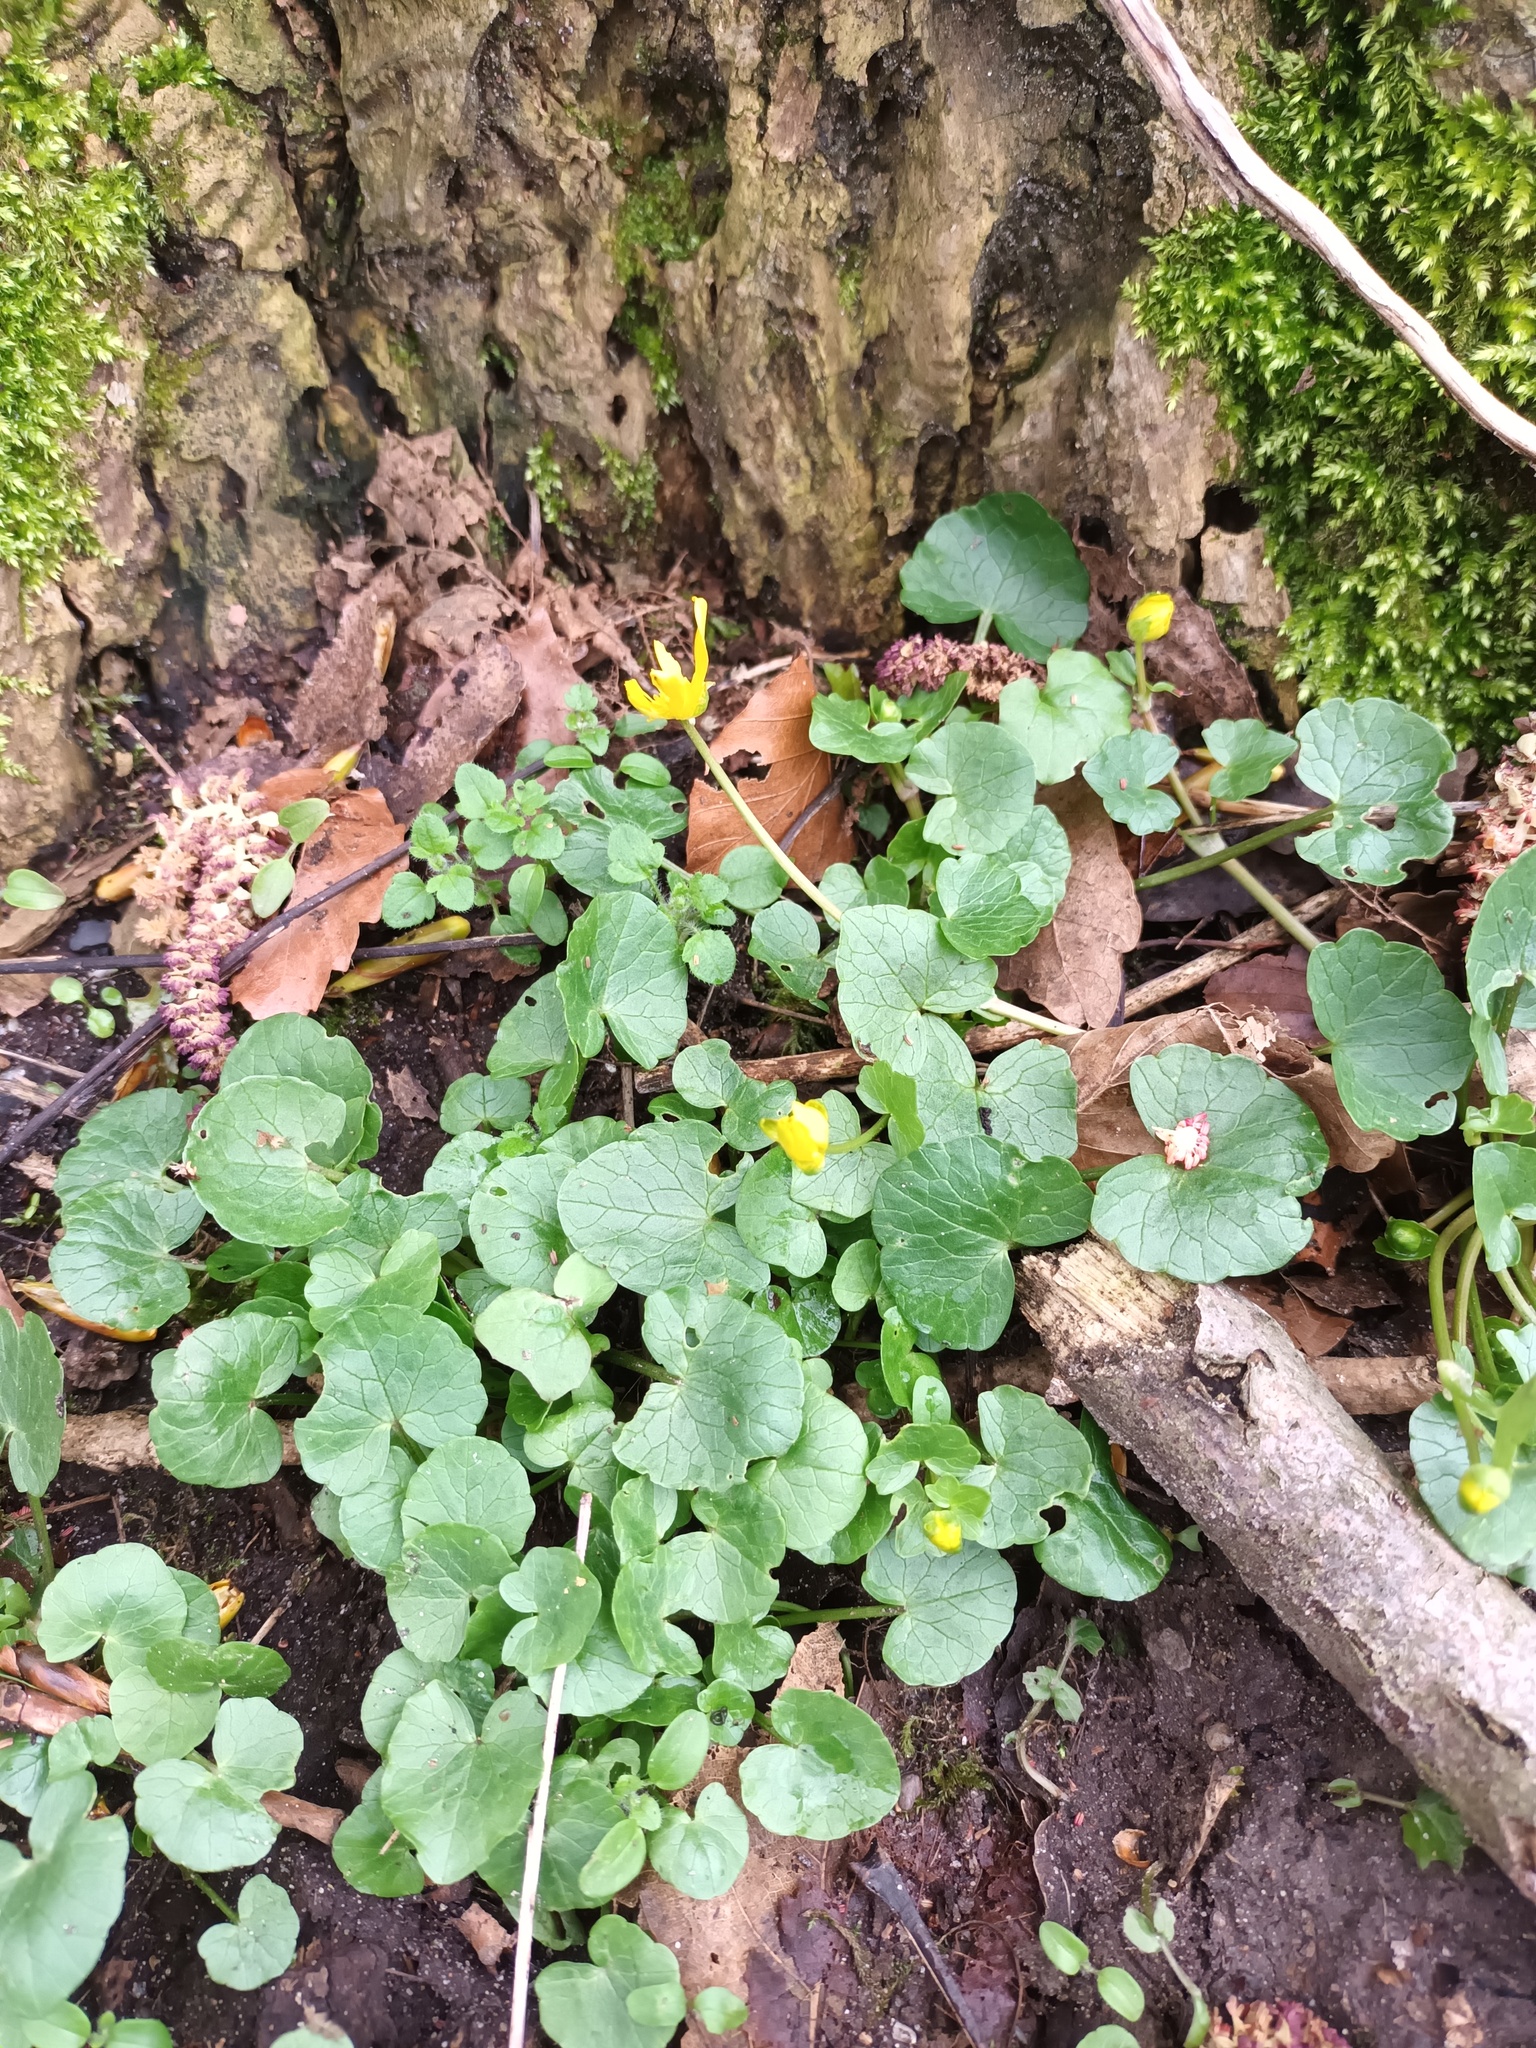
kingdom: Plantae
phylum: Tracheophyta
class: Magnoliopsida
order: Ranunculales
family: Ranunculaceae
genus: Ficaria
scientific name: Ficaria verna
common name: Lesser celandine
